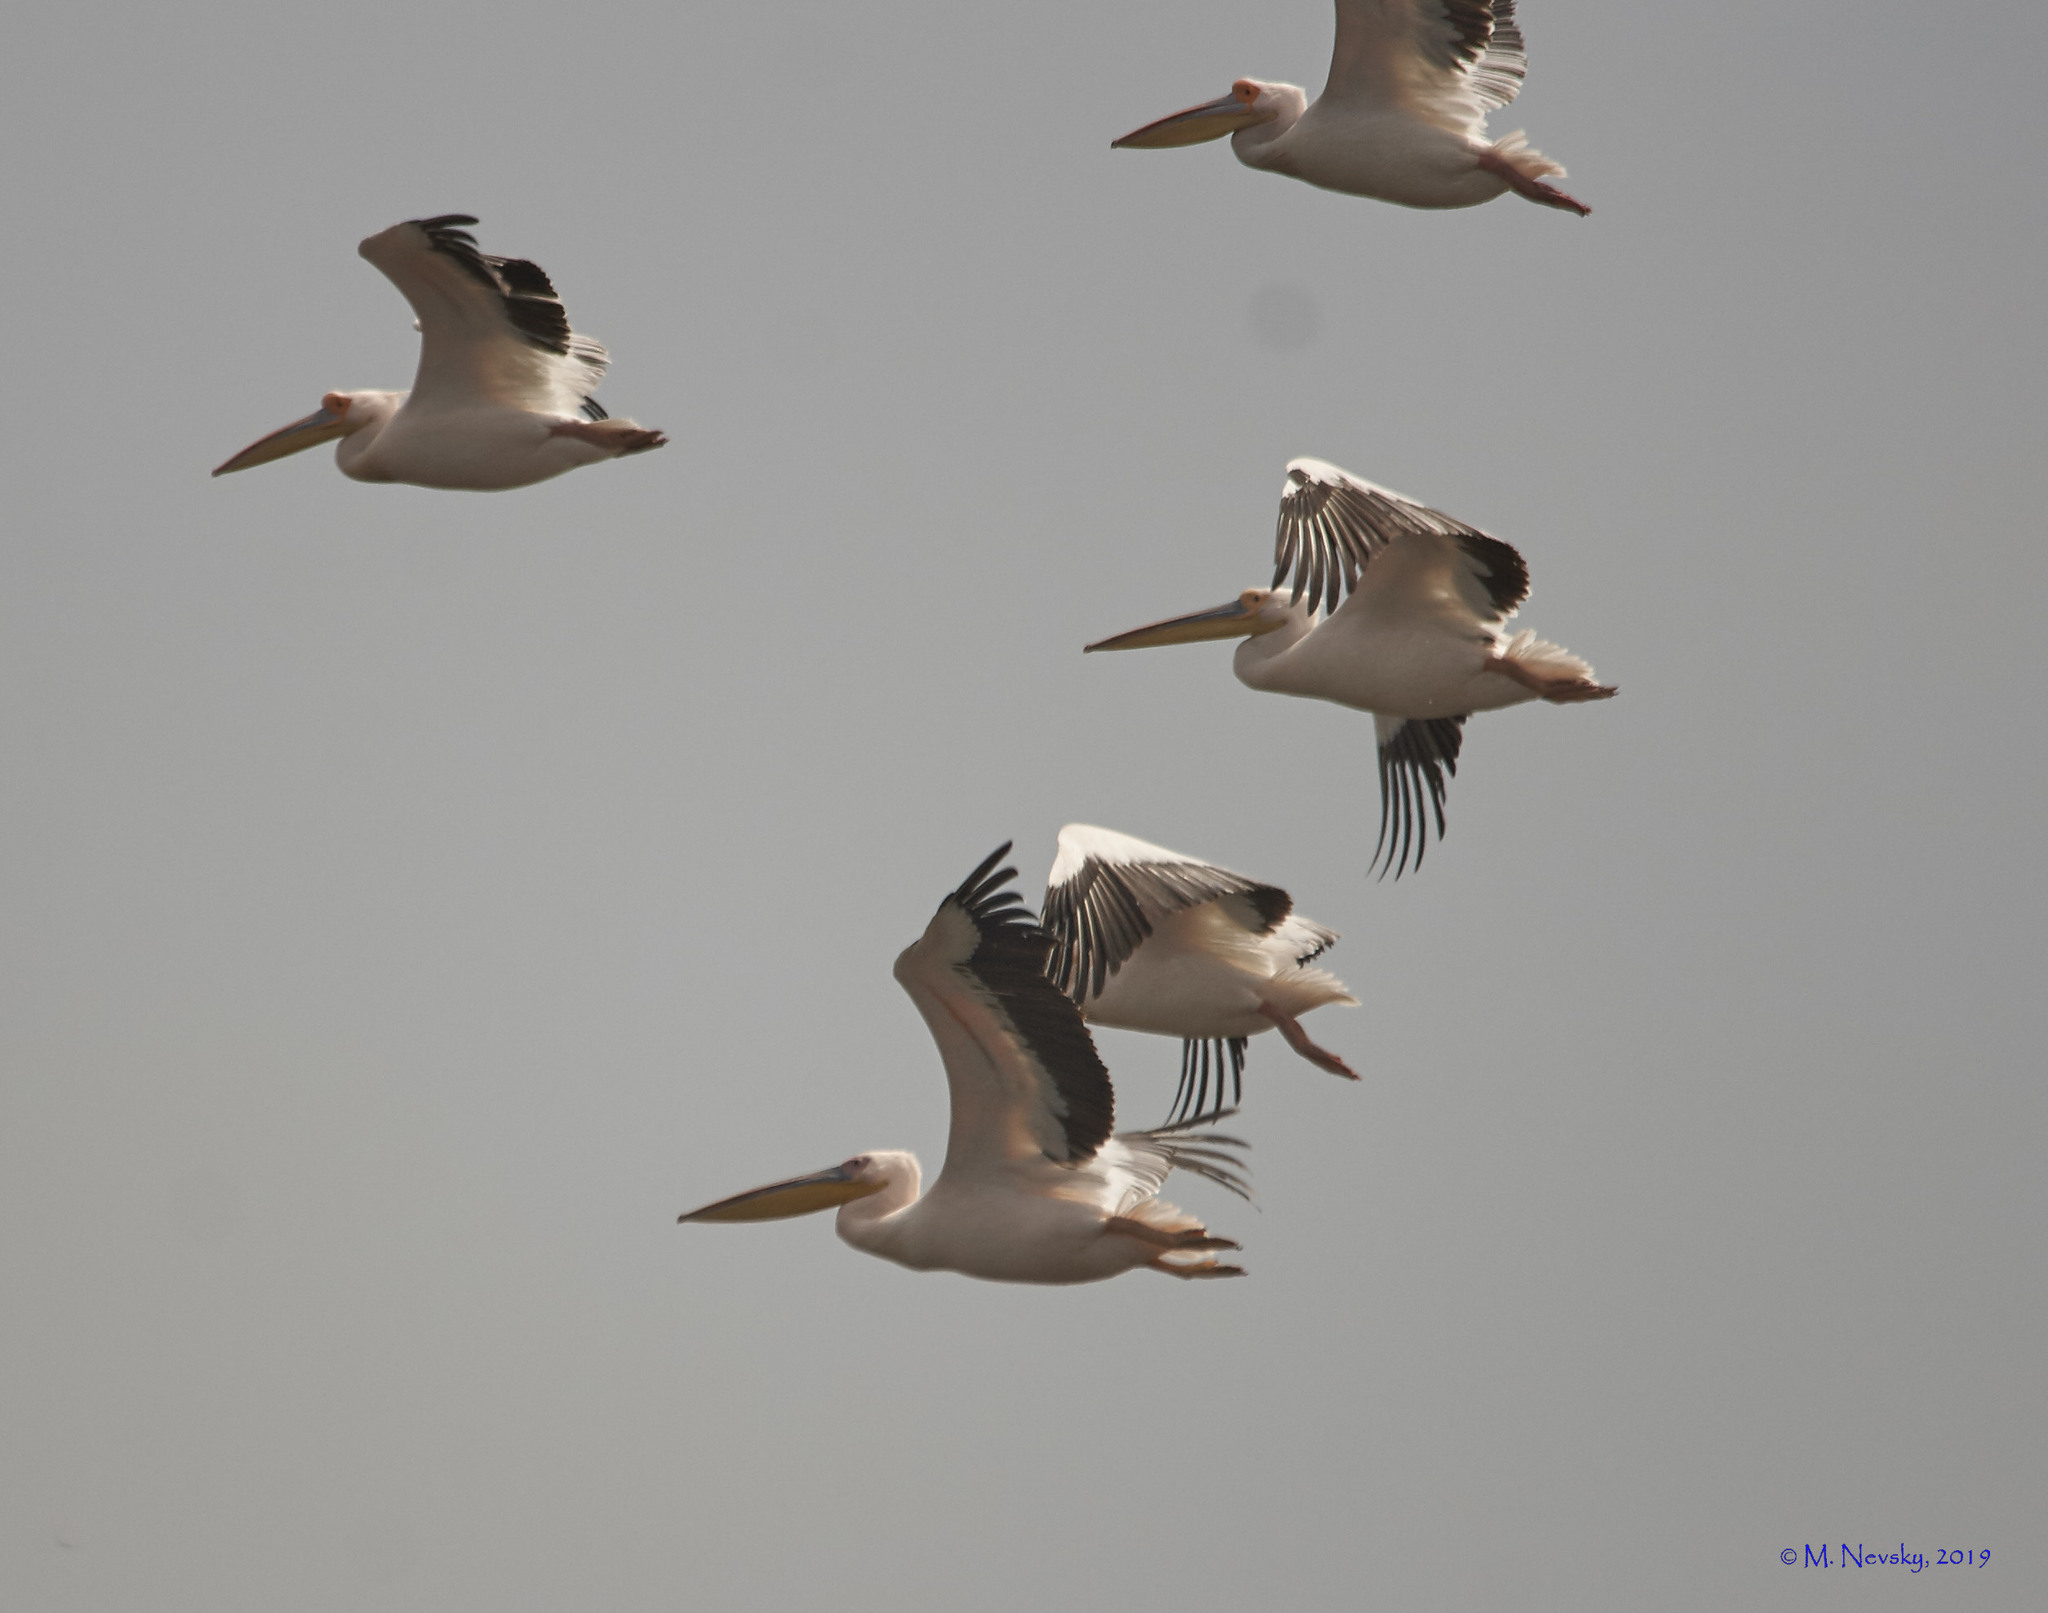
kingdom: Animalia
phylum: Chordata
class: Aves
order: Pelecaniformes
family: Pelecanidae
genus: Pelecanus
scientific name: Pelecanus onocrotalus
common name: Great white pelican
